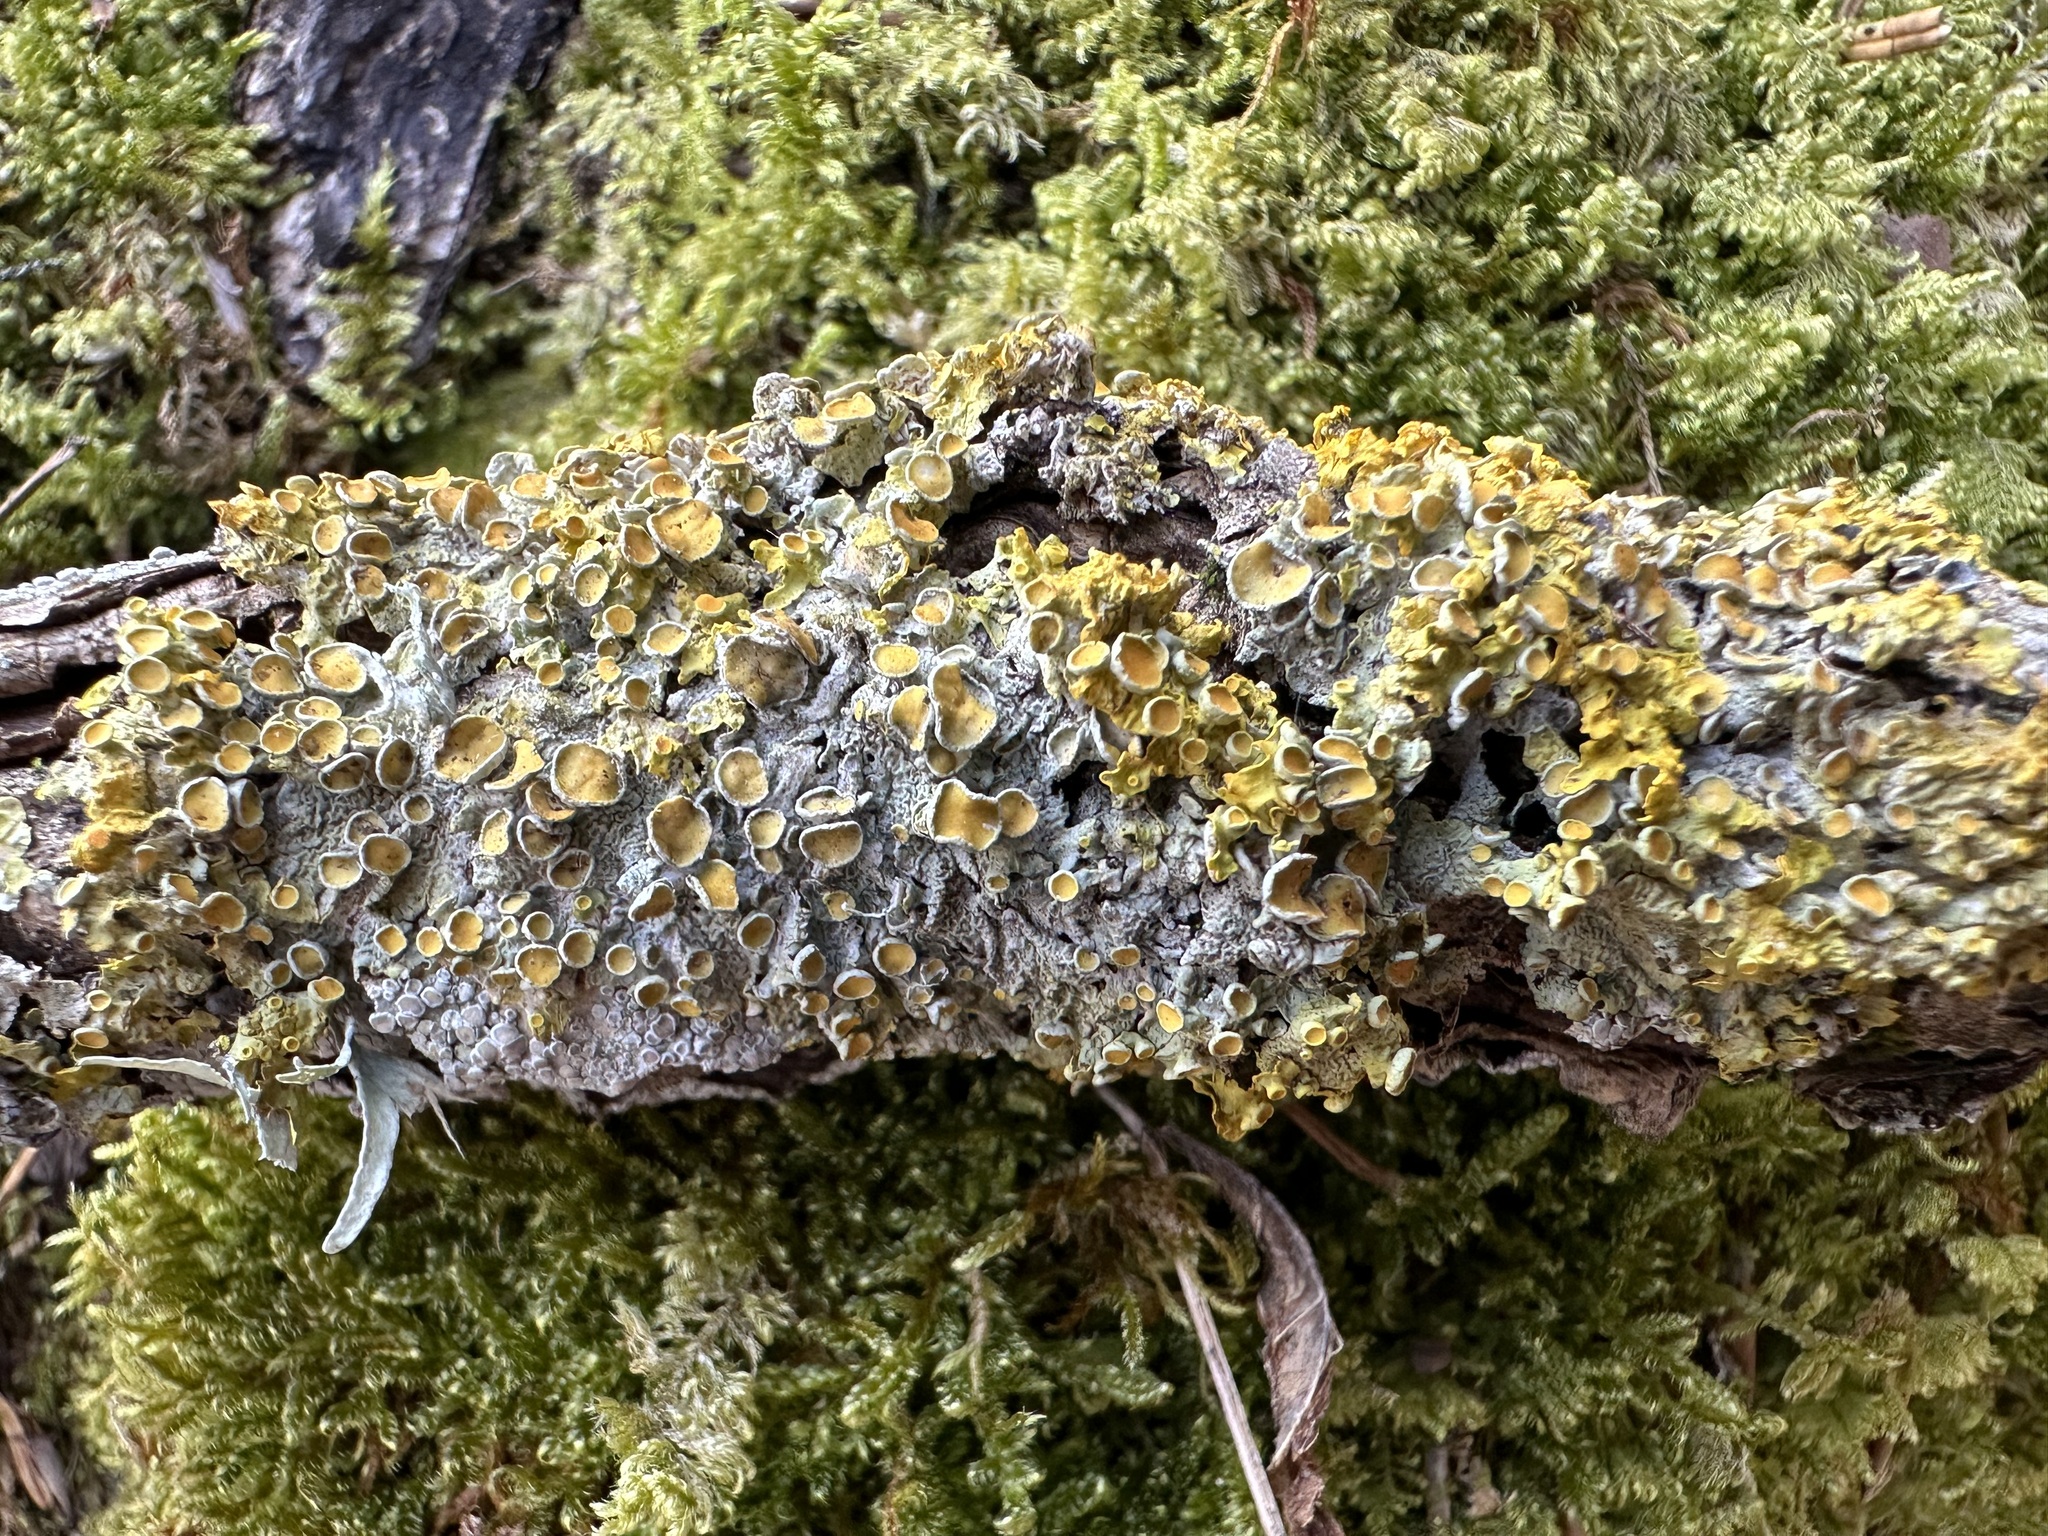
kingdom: Fungi
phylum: Ascomycota
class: Lecanoromycetes
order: Teloschistales
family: Teloschistaceae
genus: Xanthoria
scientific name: Xanthoria parietina
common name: Common orange lichen
